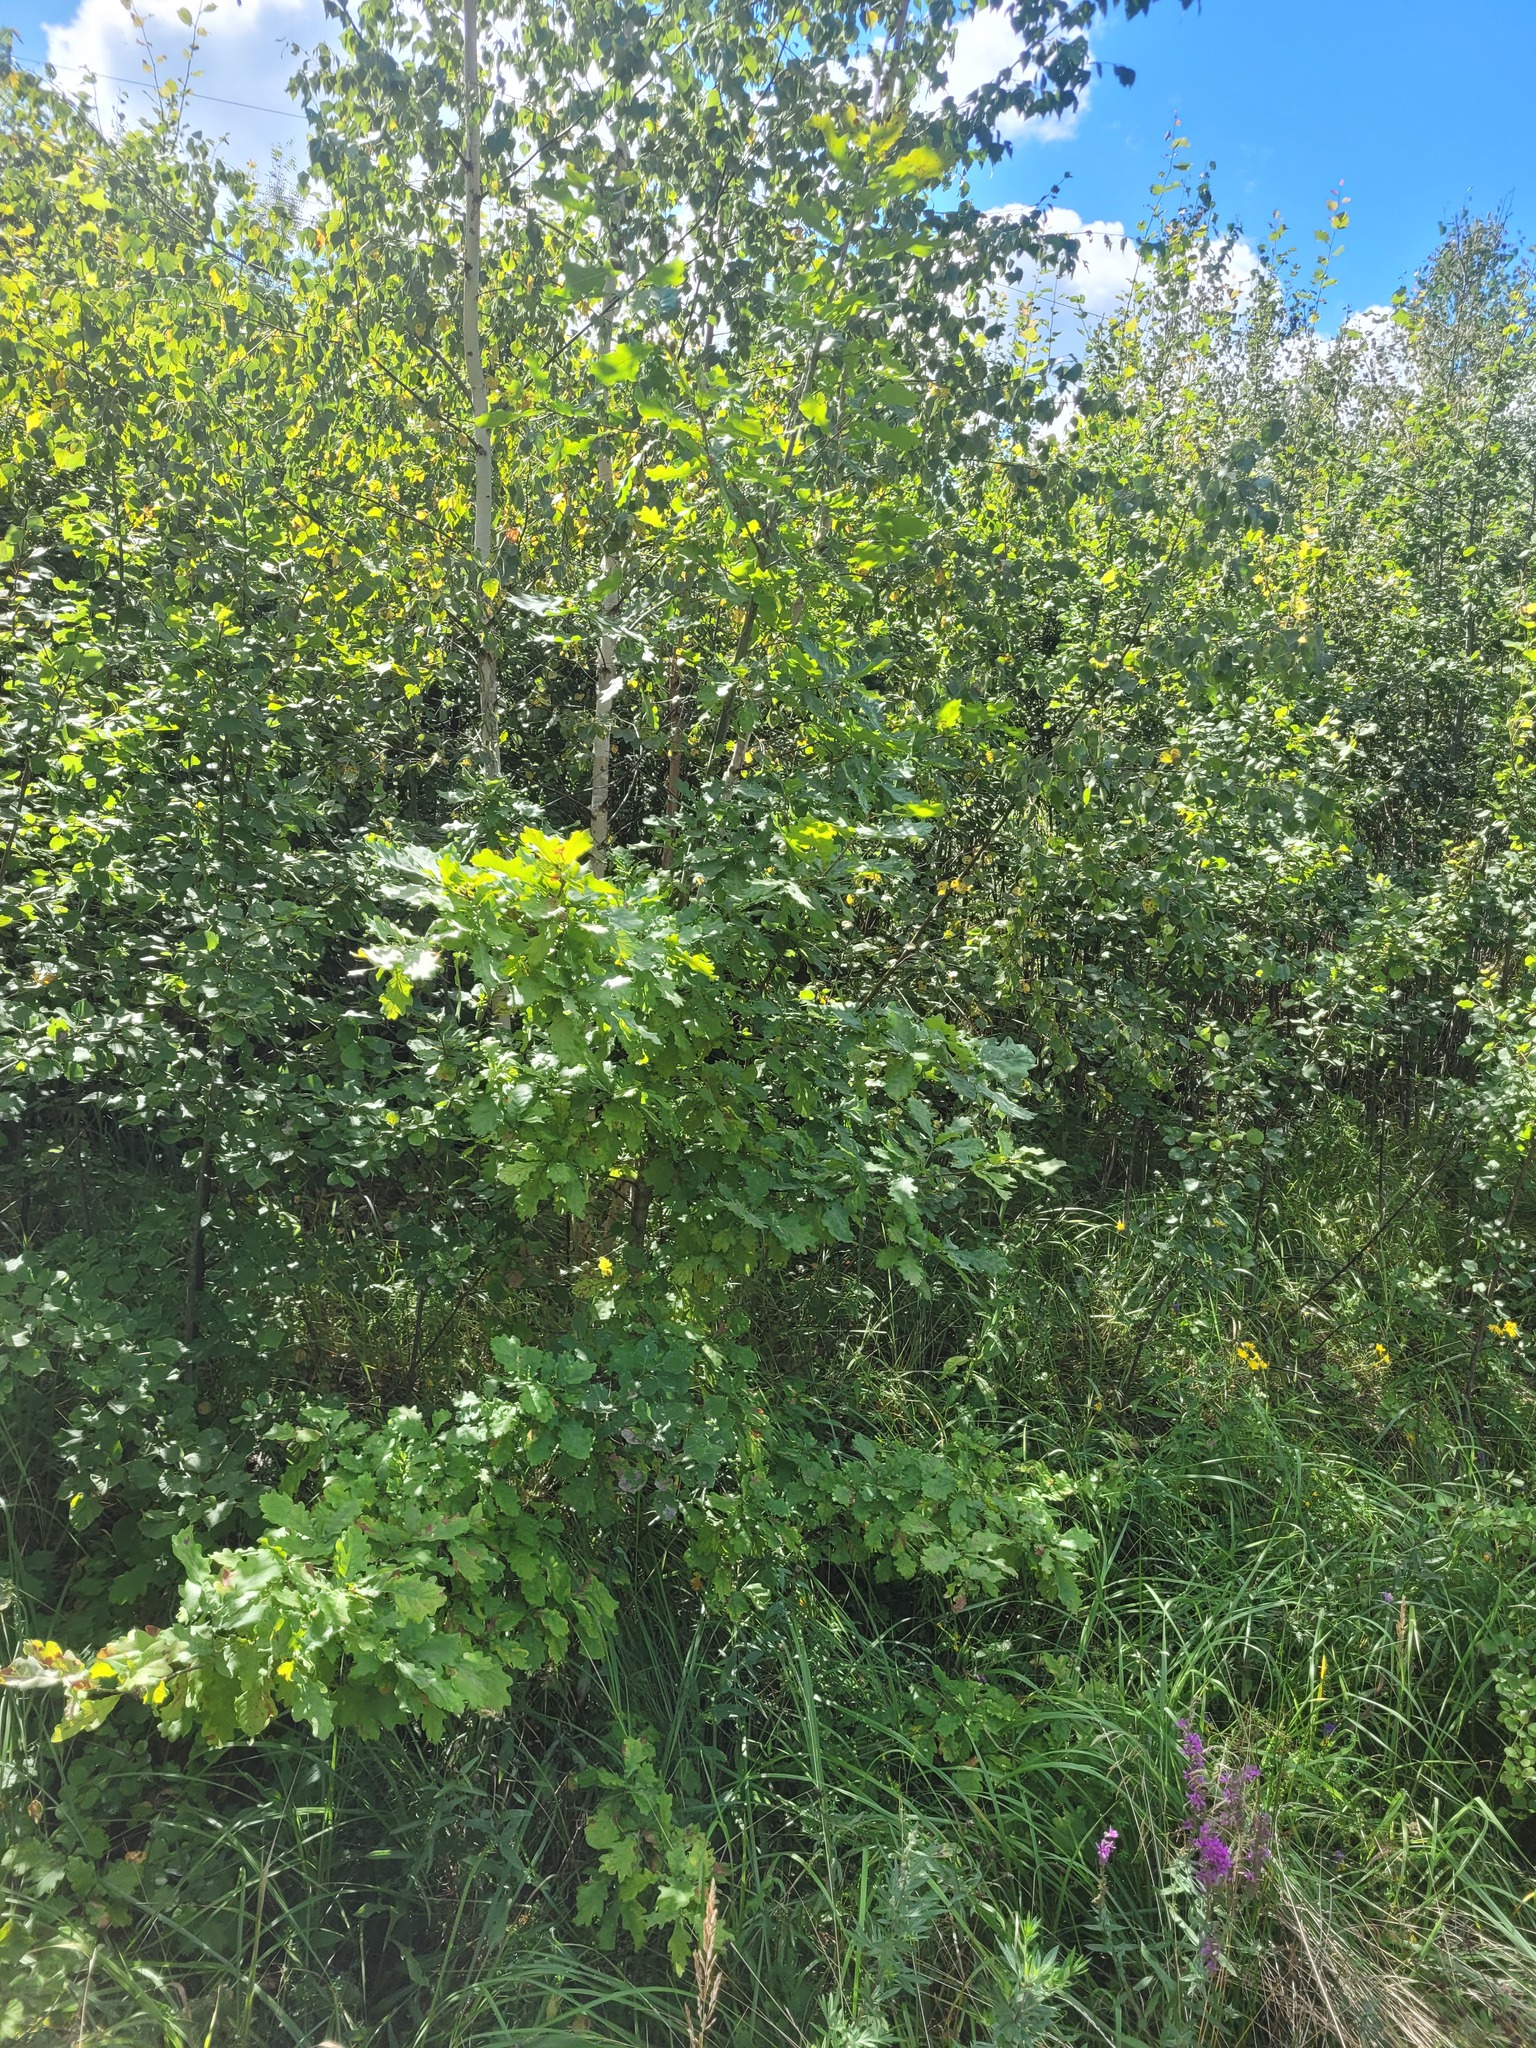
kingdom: Plantae
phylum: Tracheophyta
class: Magnoliopsida
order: Fagales
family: Fagaceae
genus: Quercus
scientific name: Quercus robur
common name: Pedunculate oak
